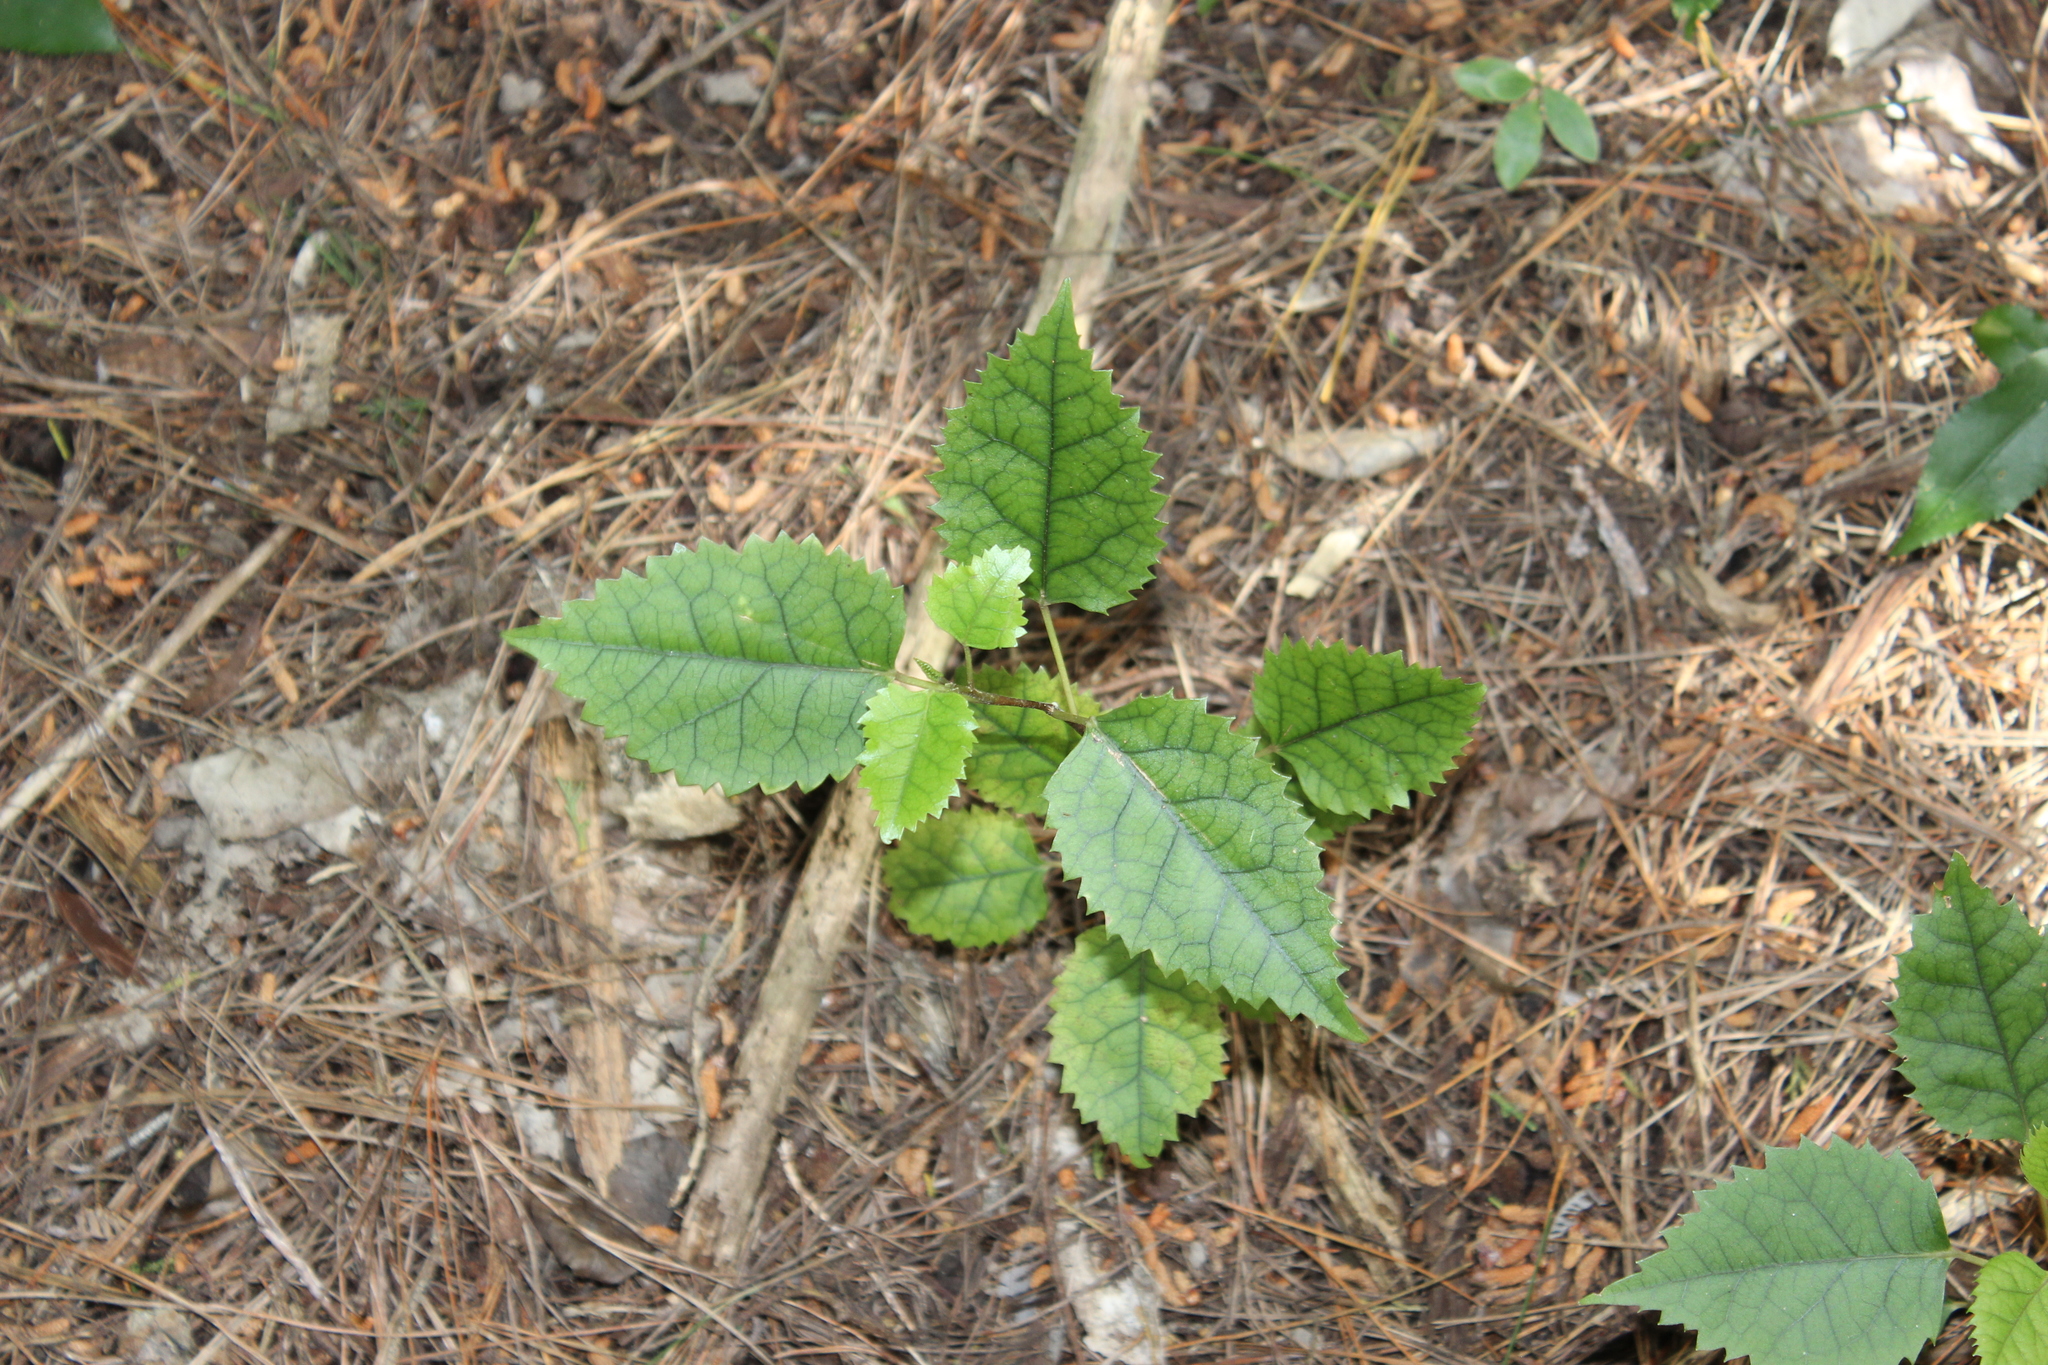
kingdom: Plantae
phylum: Tracheophyta
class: Magnoliopsida
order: Malvales
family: Malvaceae
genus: Hoheria
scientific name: Hoheria populnea
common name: Lacebark
